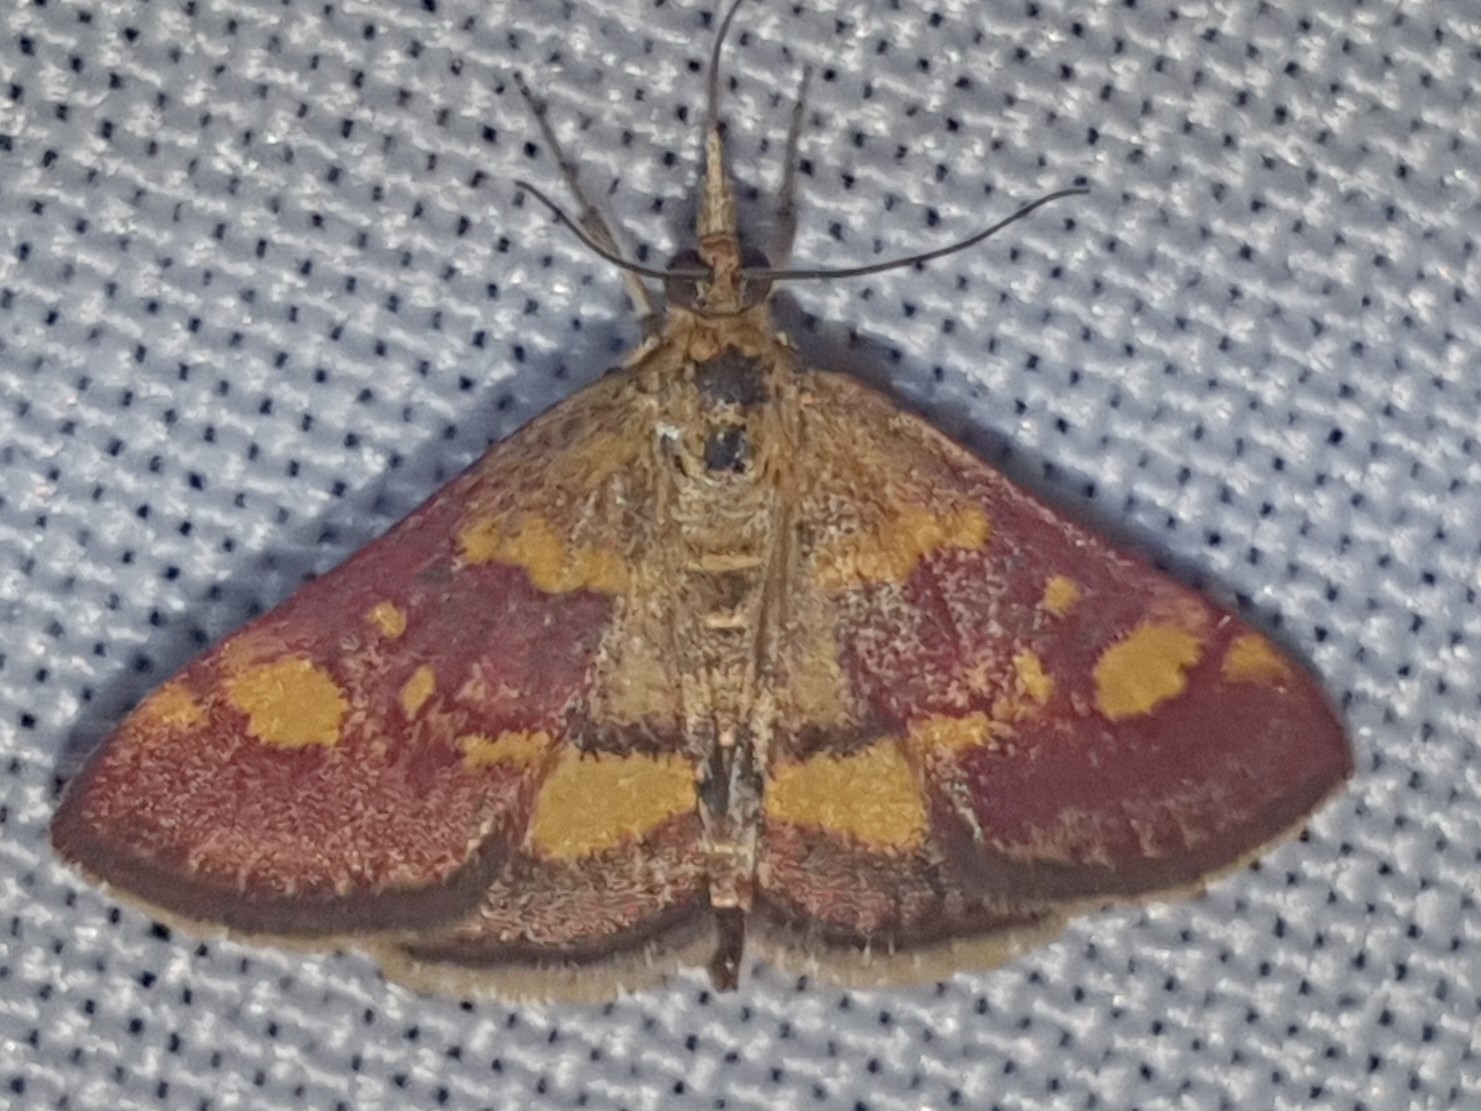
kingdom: Animalia
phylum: Arthropoda
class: Insecta
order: Lepidoptera
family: Crambidae
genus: Pyrausta
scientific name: Pyrausta aurata
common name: Small purple & gold
